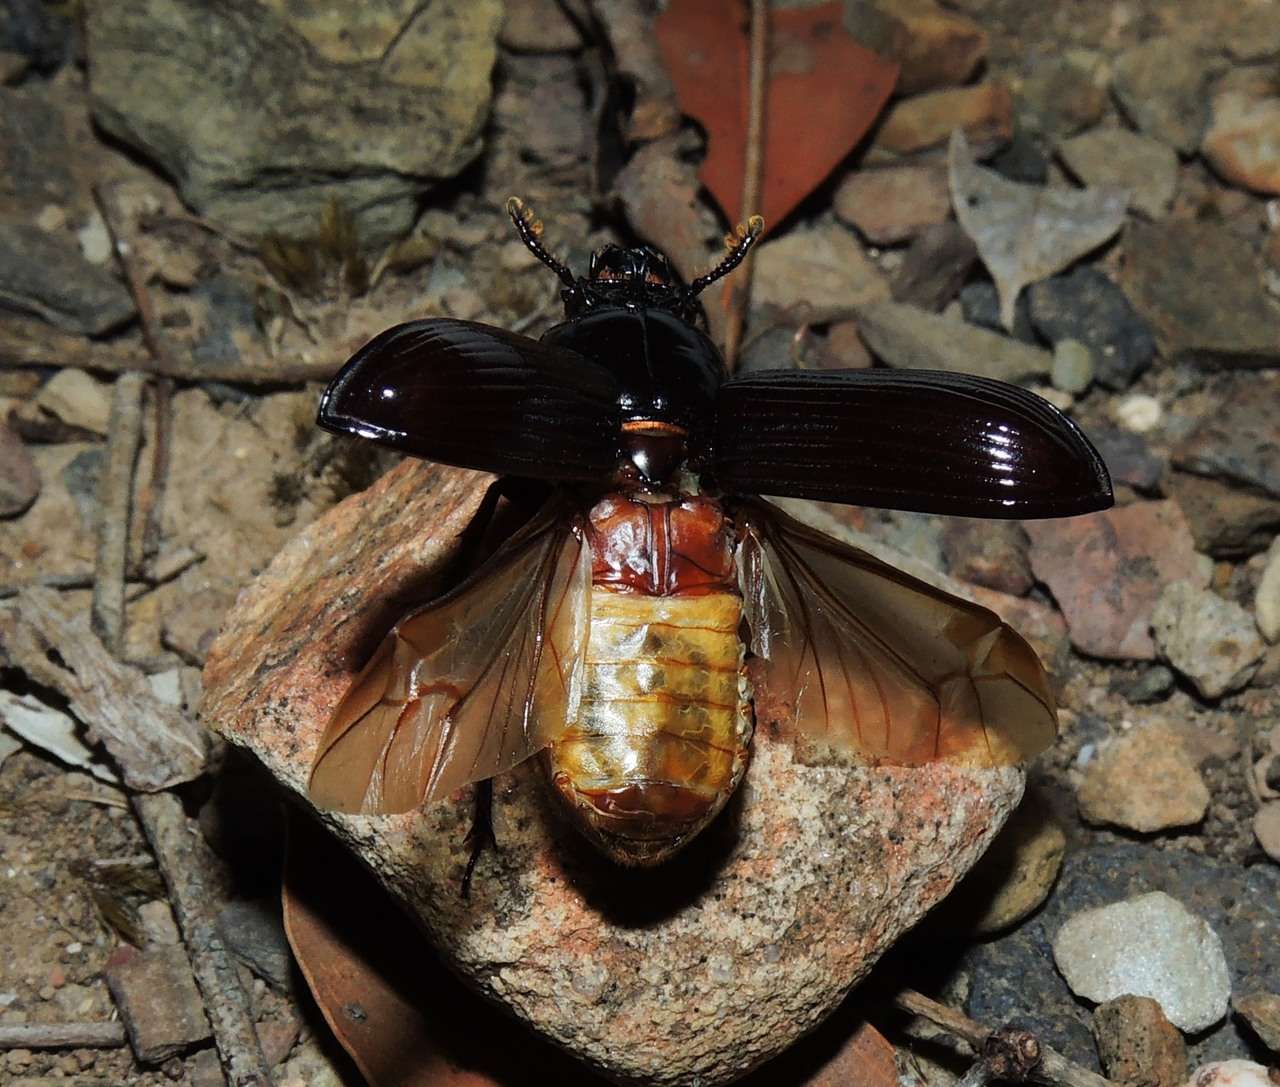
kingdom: Animalia
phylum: Arthropoda
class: Insecta
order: Coleoptera
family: Passalidae
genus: Aulacocyclus
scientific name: Aulacocyclus edentulus
